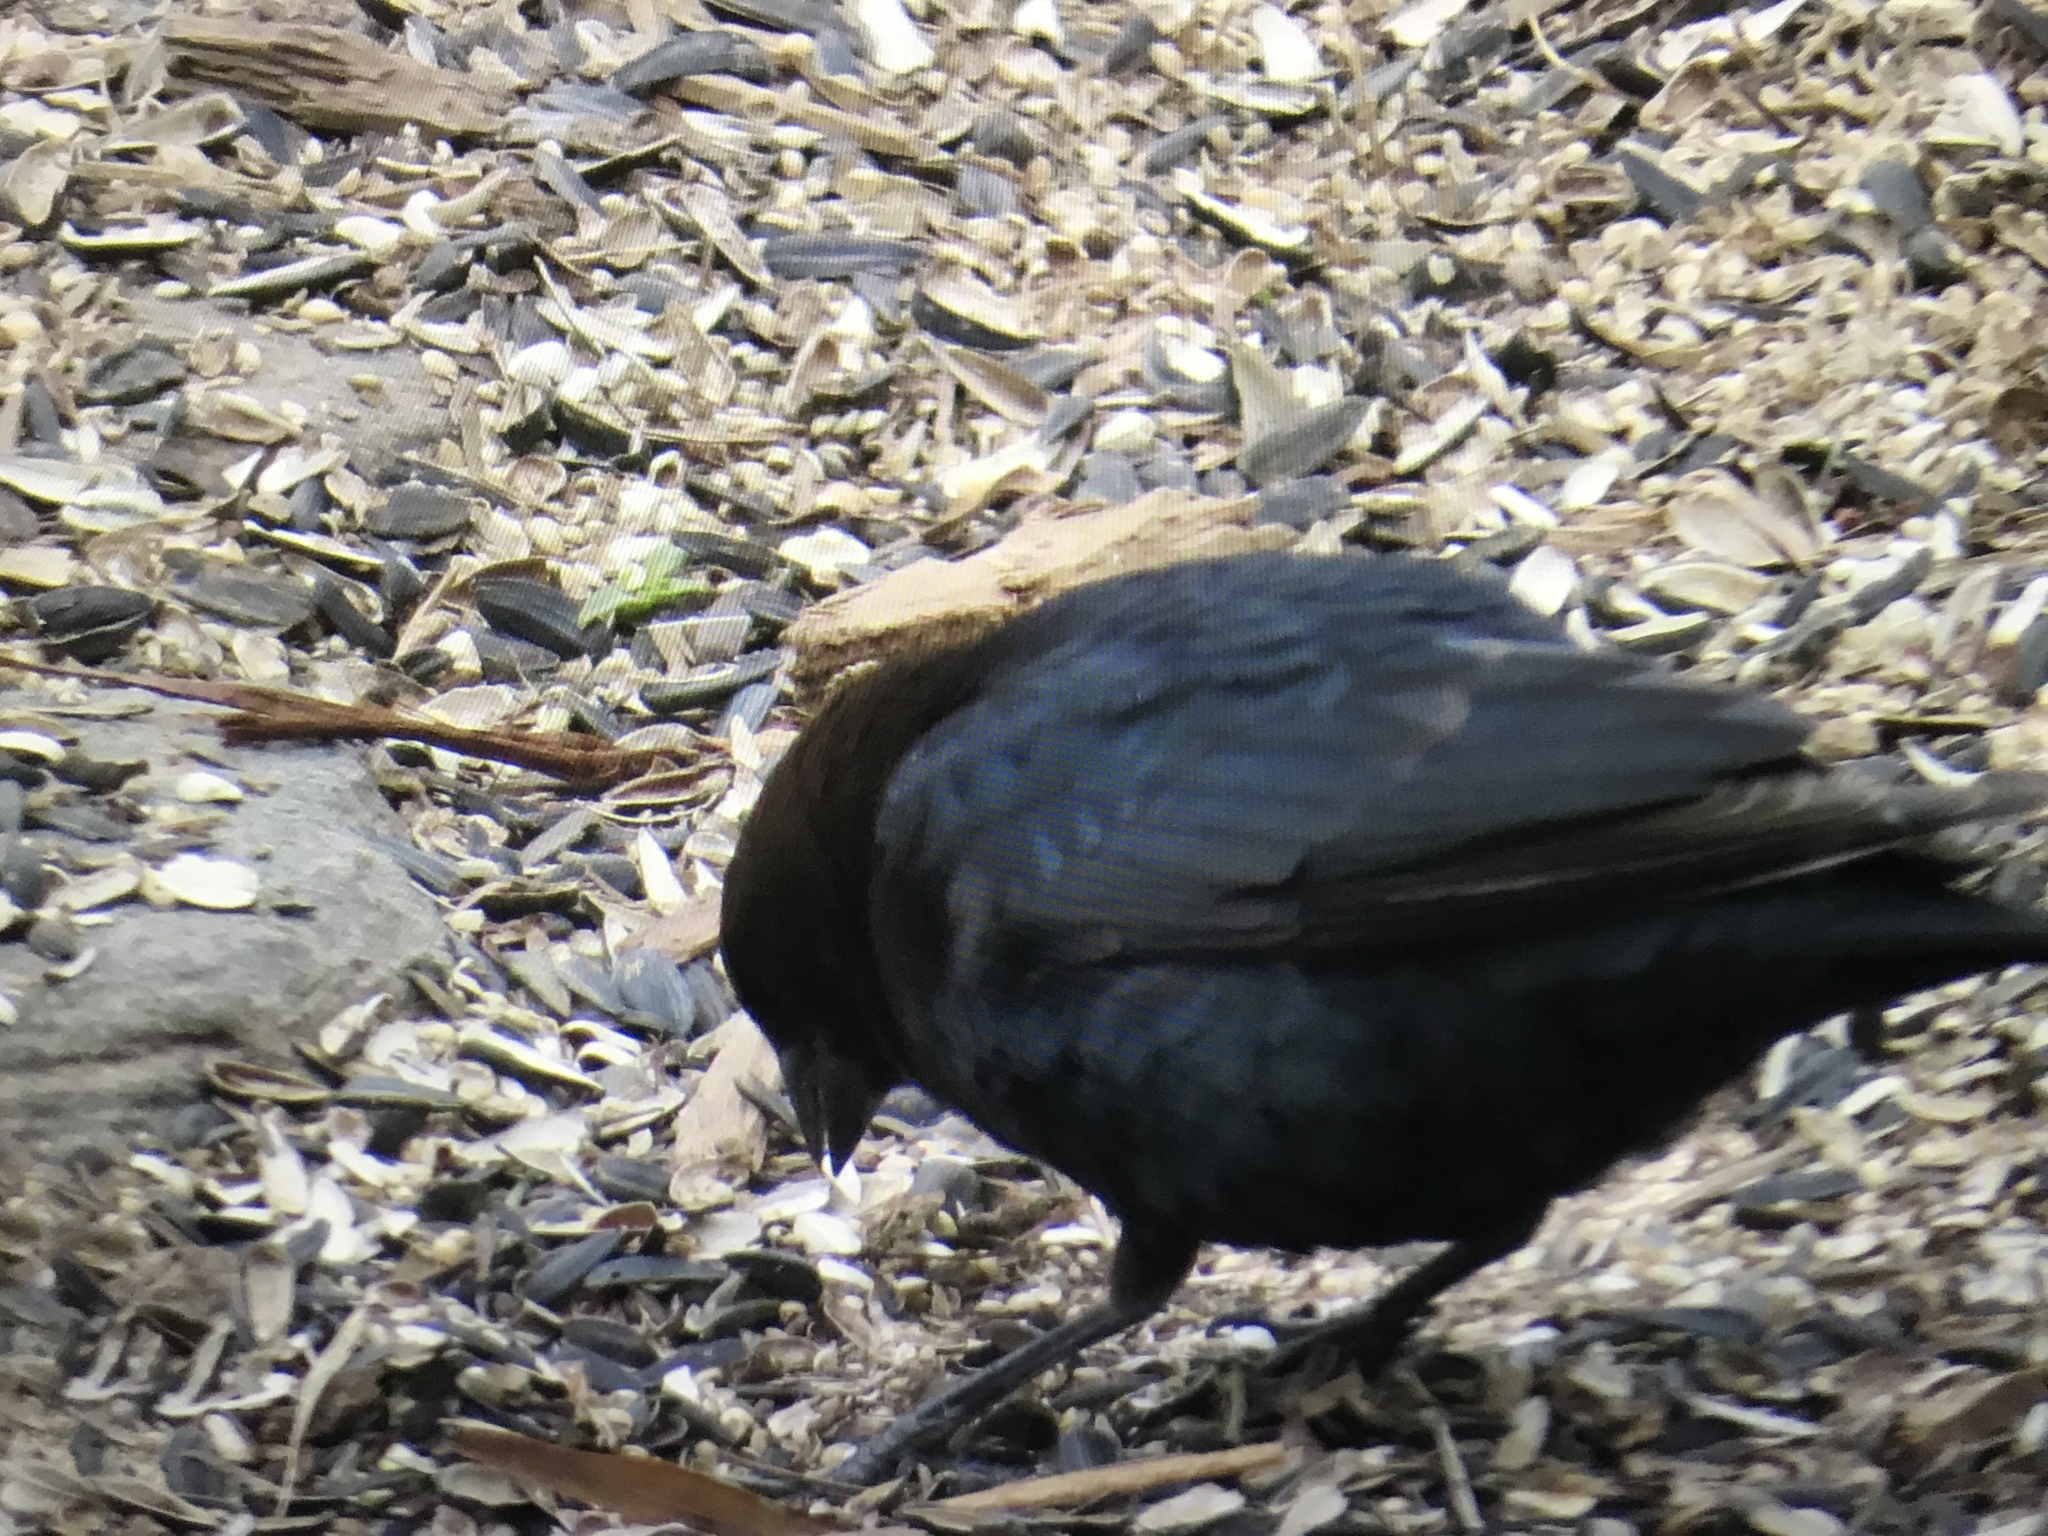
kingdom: Animalia
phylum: Chordata
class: Aves
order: Passeriformes
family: Icteridae
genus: Molothrus
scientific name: Molothrus ater
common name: Brown-headed cowbird
